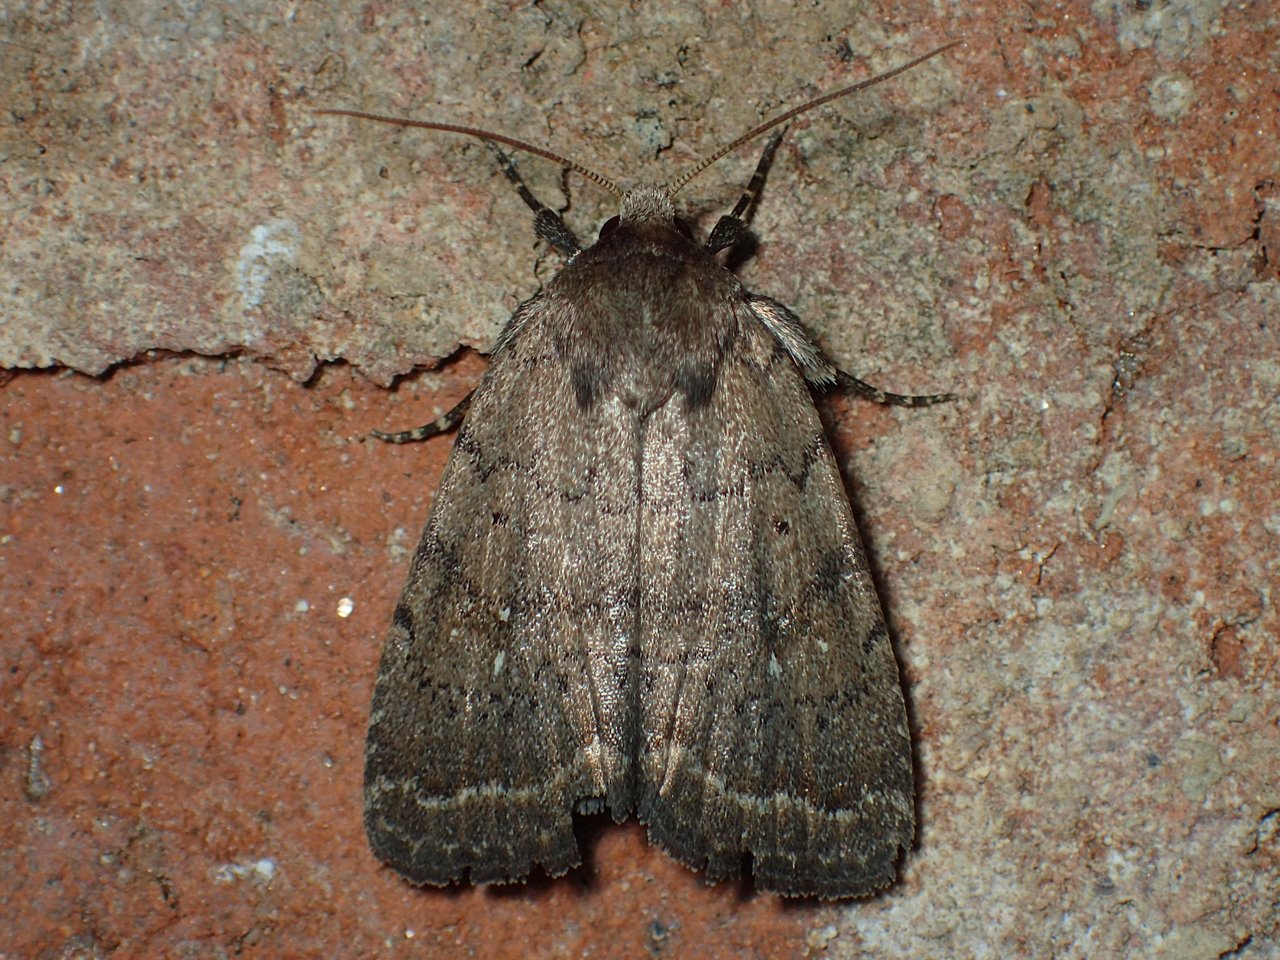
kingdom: Animalia
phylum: Arthropoda
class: Insecta
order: Lepidoptera
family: Noctuidae
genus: Athetis
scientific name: Athetis tarda
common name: Slowpoke moth
